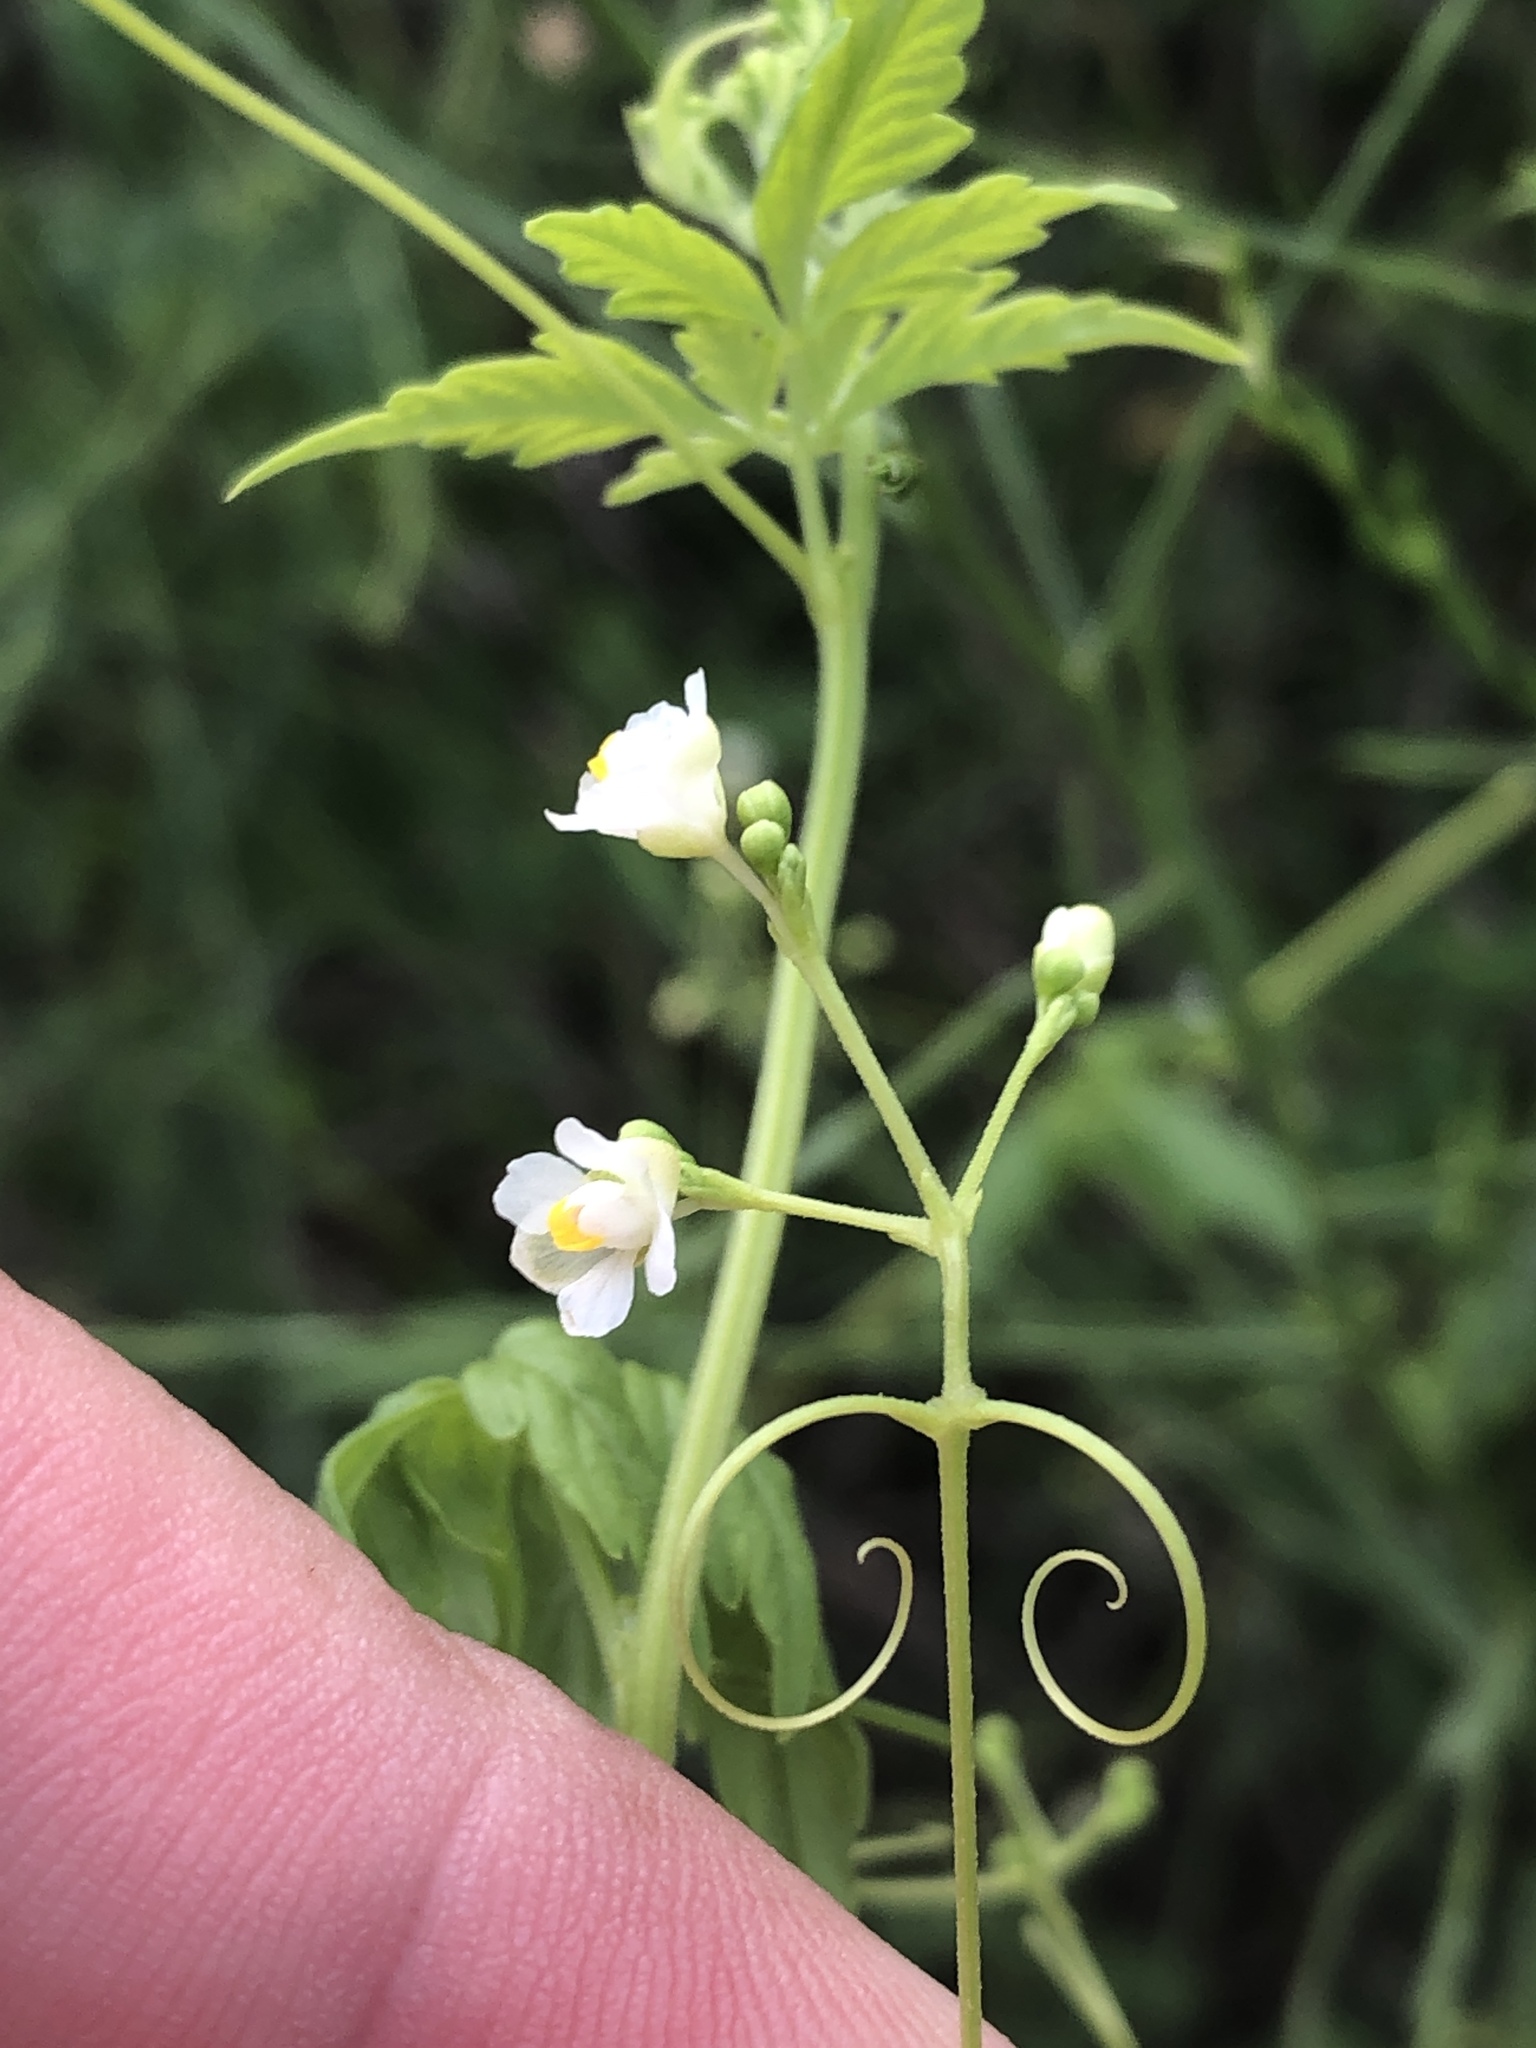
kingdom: Plantae
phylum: Tracheophyta
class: Magnoliopsida
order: Sapindales
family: Sapindaceae
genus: Cardiospermum
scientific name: Cardiospermum halicacabum
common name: Balloon vine
